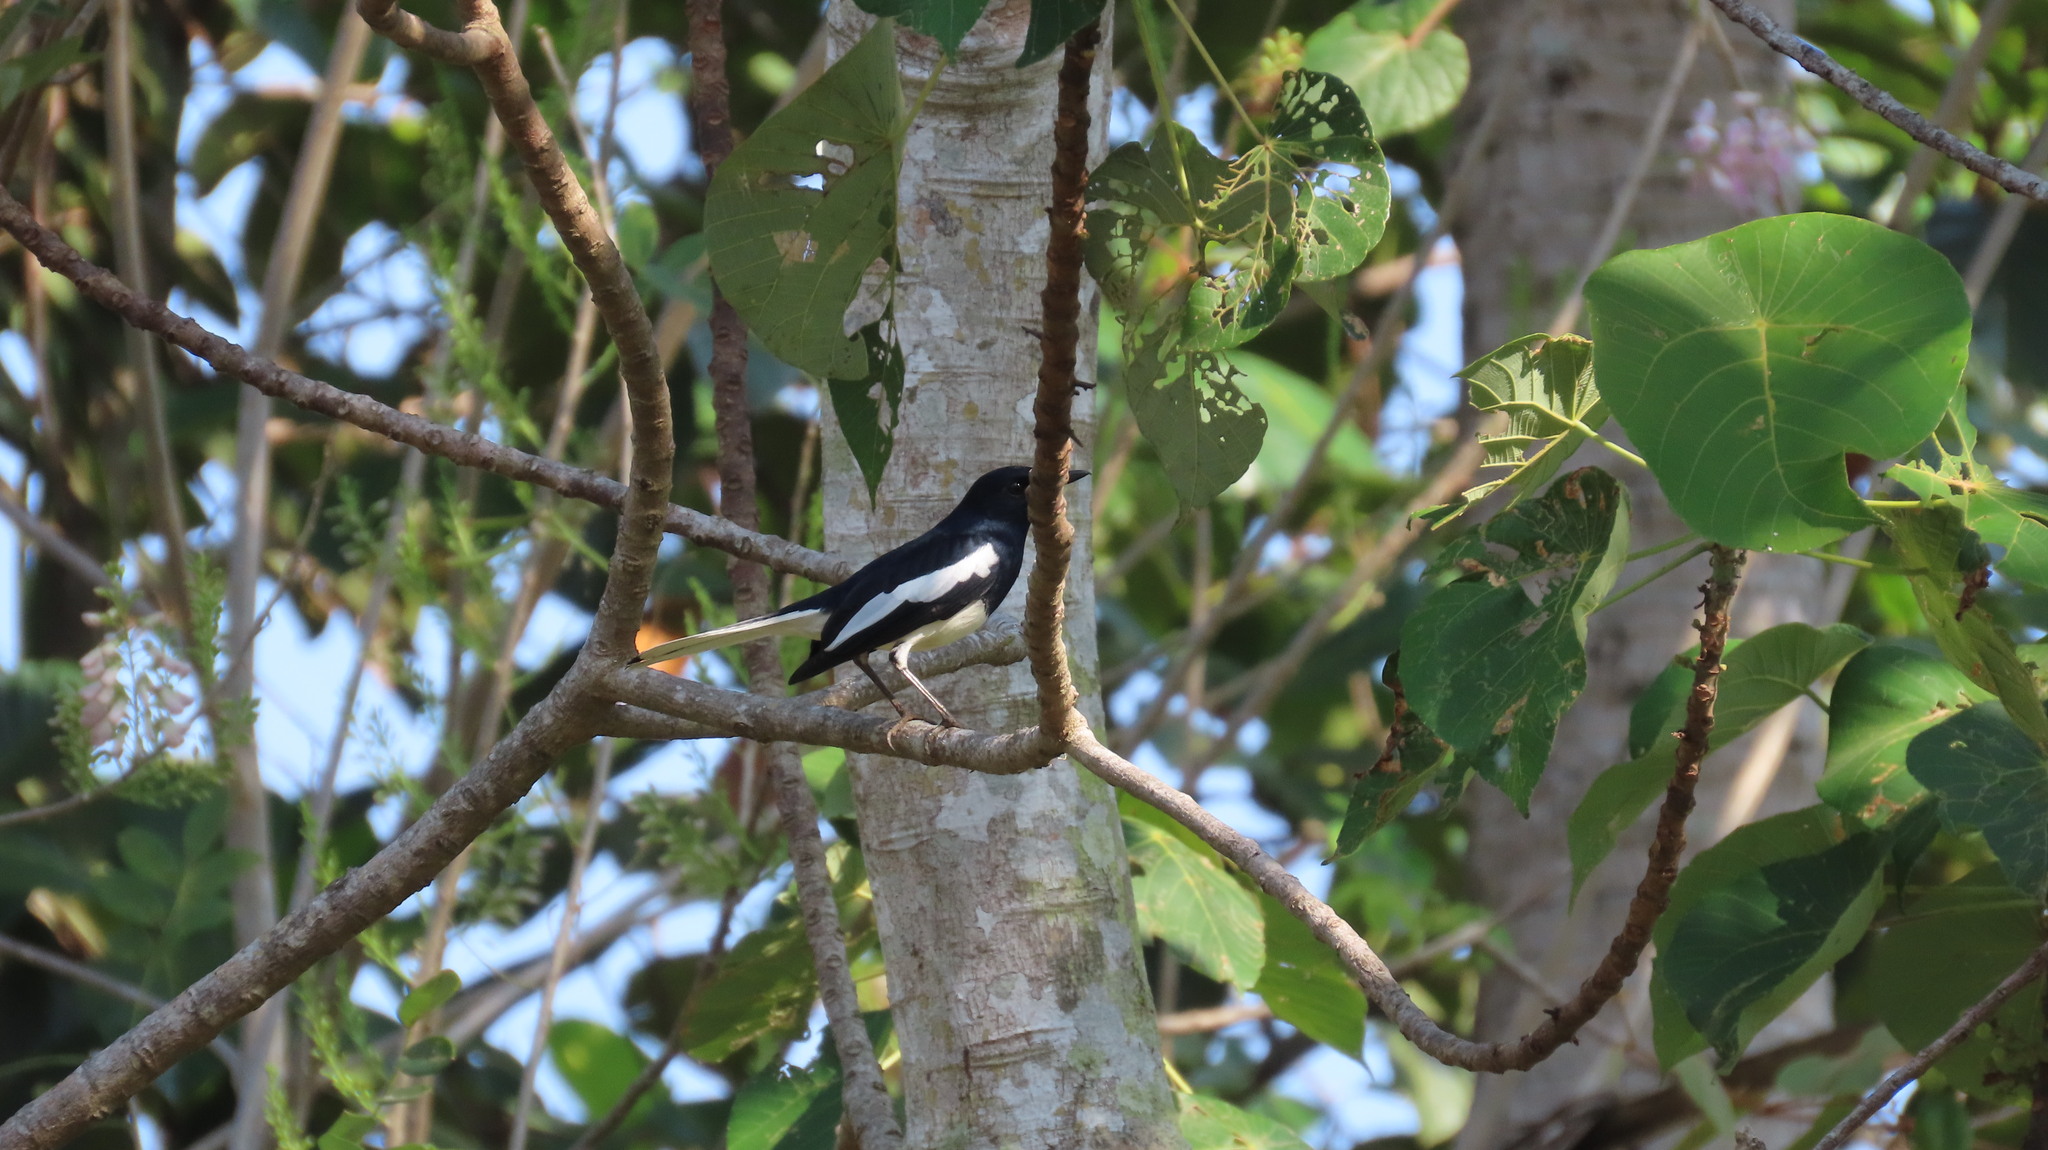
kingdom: Animalia
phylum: Chordata
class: Aves
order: Passeriformes
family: Muscicapidae
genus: Copsychus
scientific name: Copsychus saularis
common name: Oriental magpie-robin
